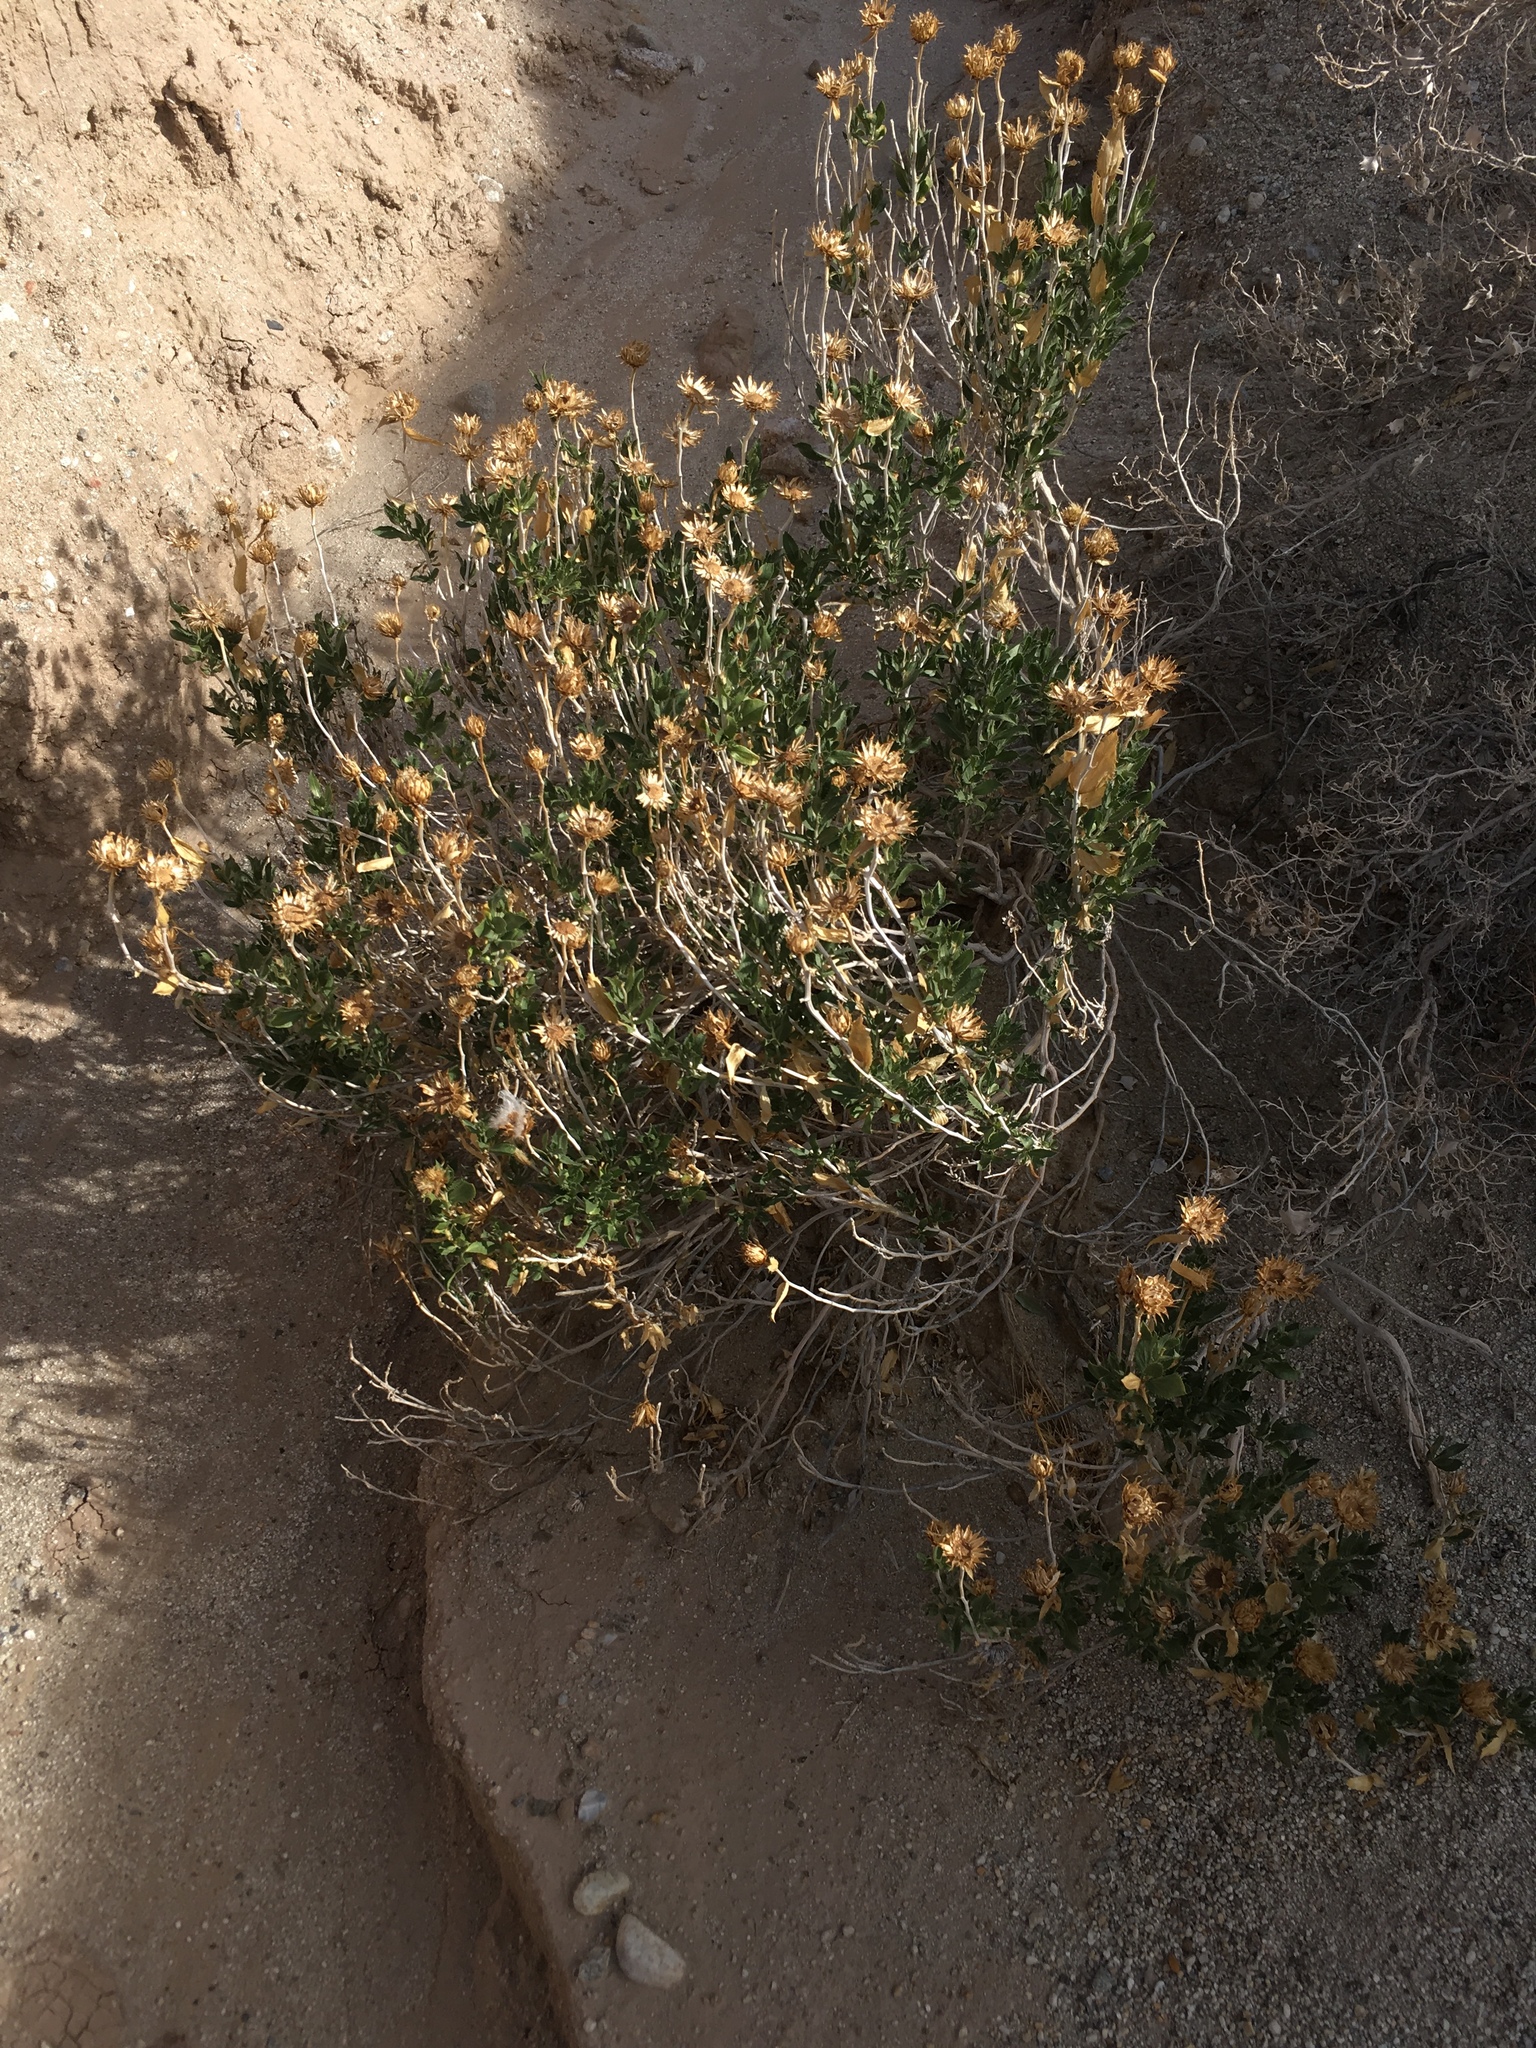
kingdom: Plantae
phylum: Tracheophyta
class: Magnoliopsida
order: Asterales
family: Asteraceae
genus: Xylorhiza
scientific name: Xylorhiza orcuttii
